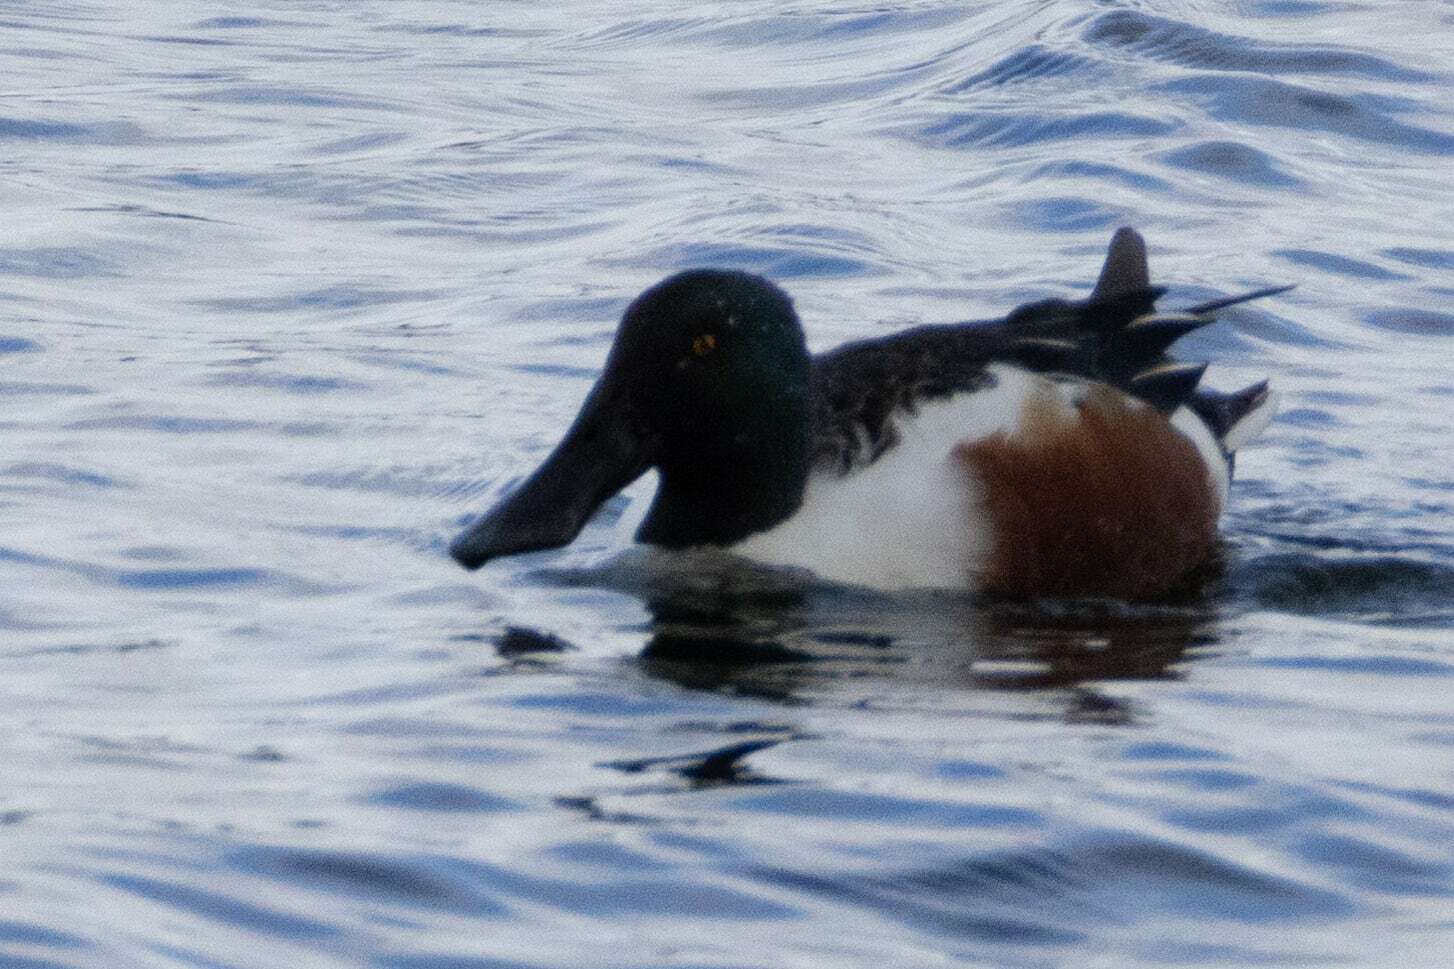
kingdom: Animalia
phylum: Chordata
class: Aves
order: Anseriformes
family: Anatidae
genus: Spatula
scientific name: Spatula clypeata
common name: Northern shoveler
